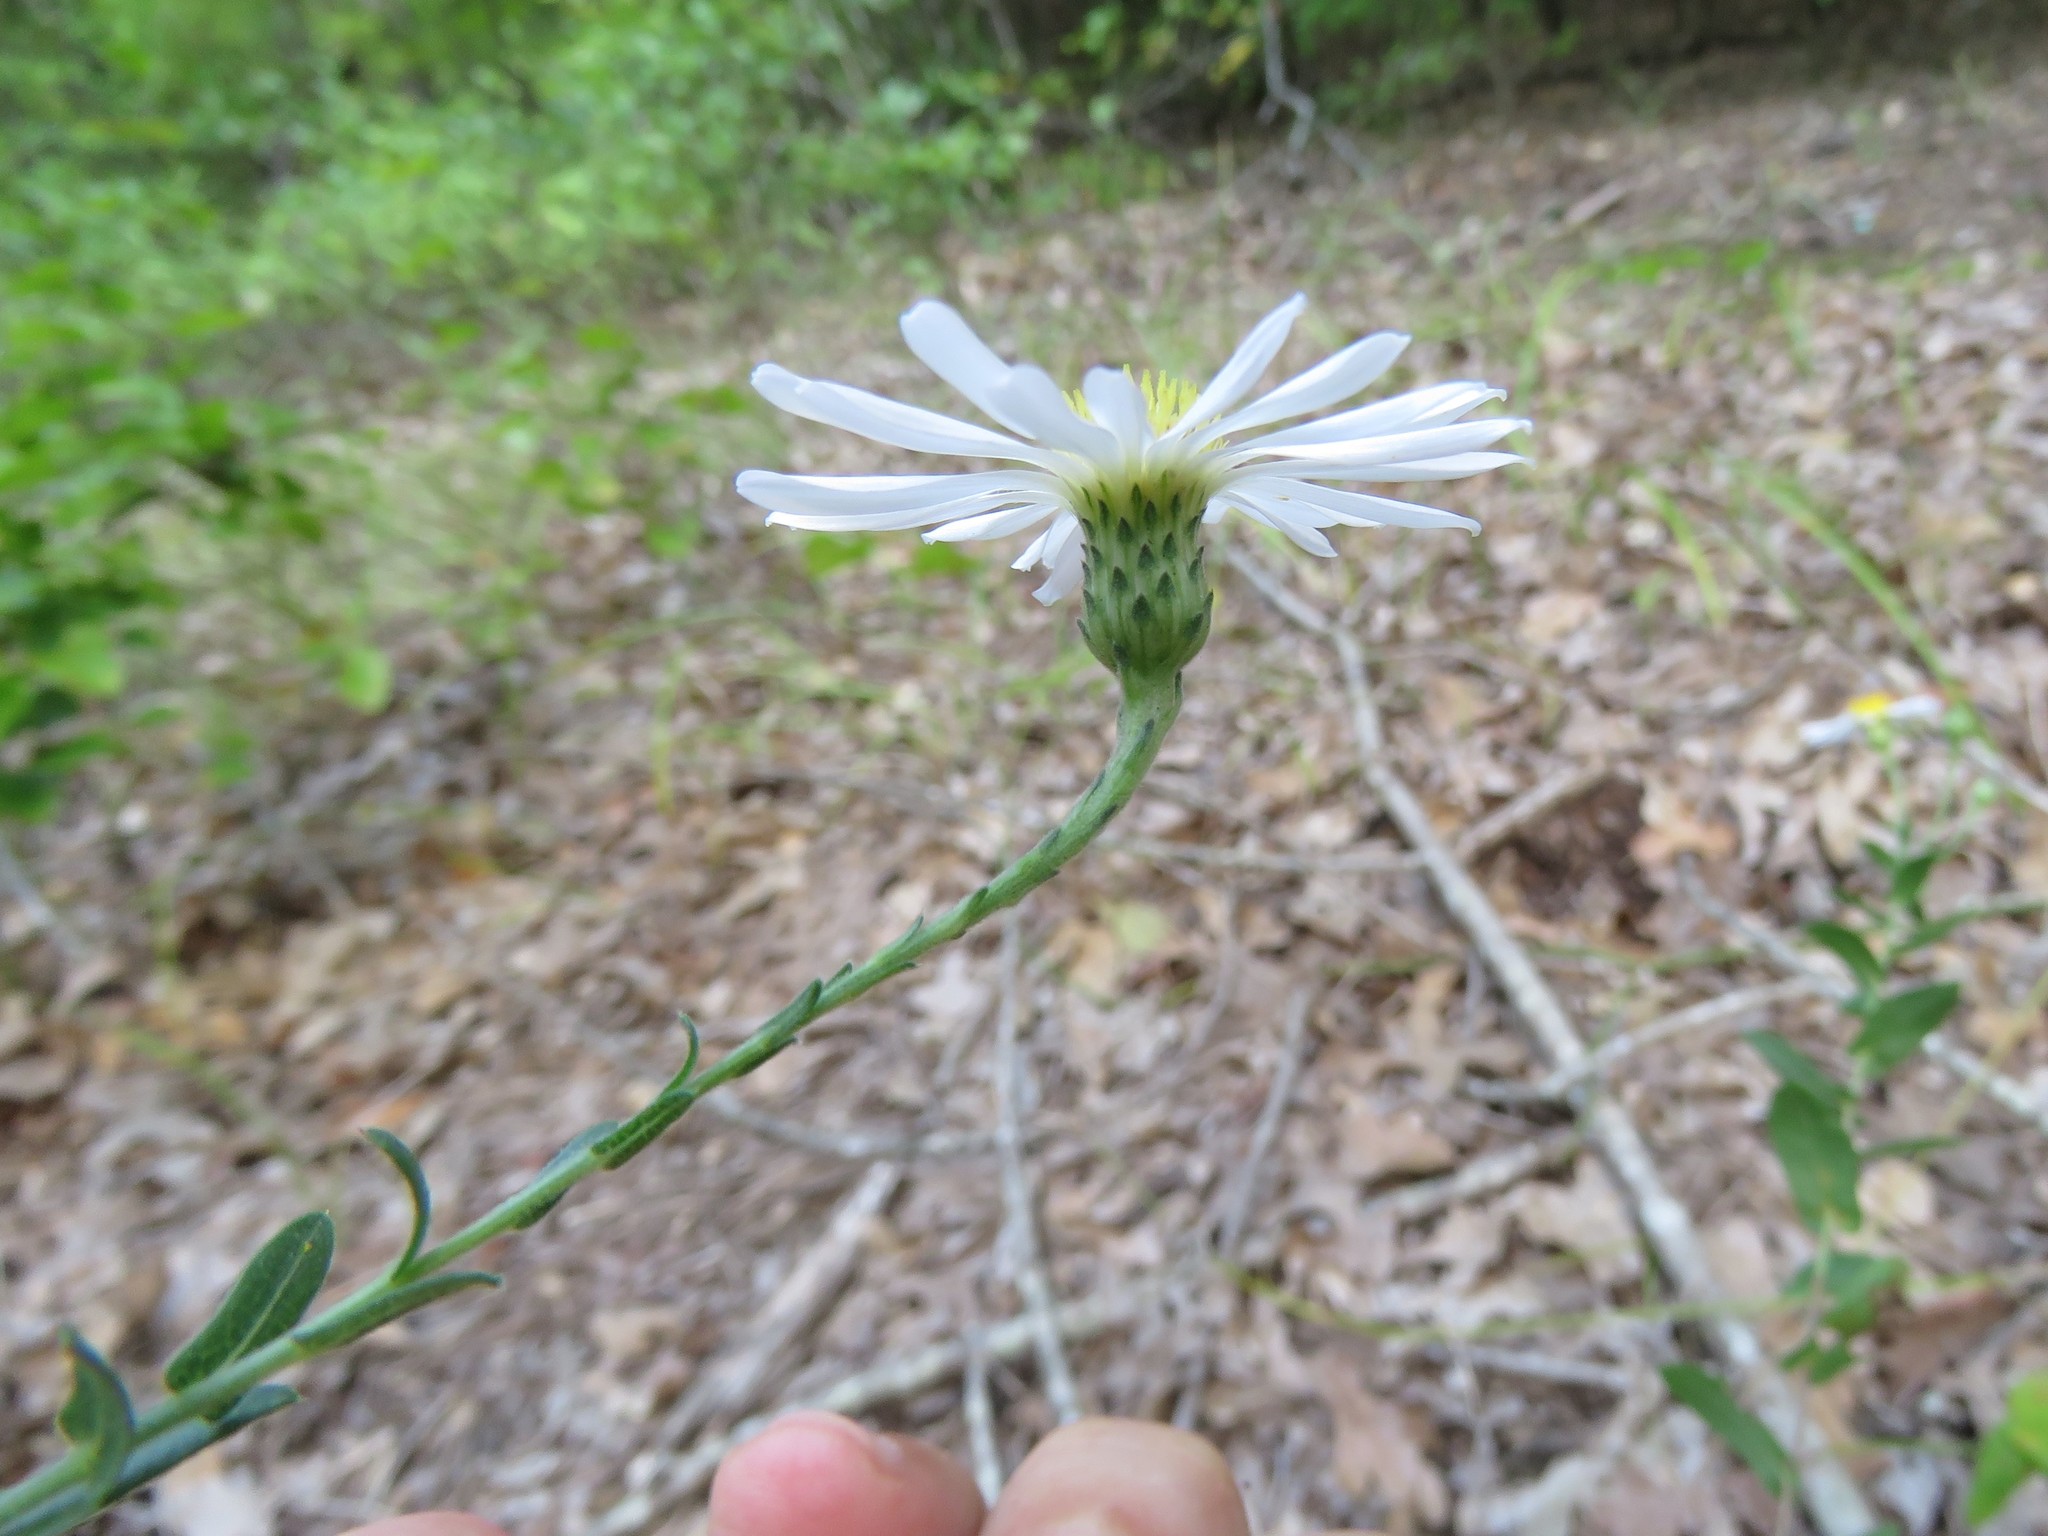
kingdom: Plantae
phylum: Tracheophyta
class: Magnoliopsida
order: Asterales
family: Asteraceae
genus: Symphyotrichum
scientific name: Symphyotrichum patens
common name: Late purple aster
